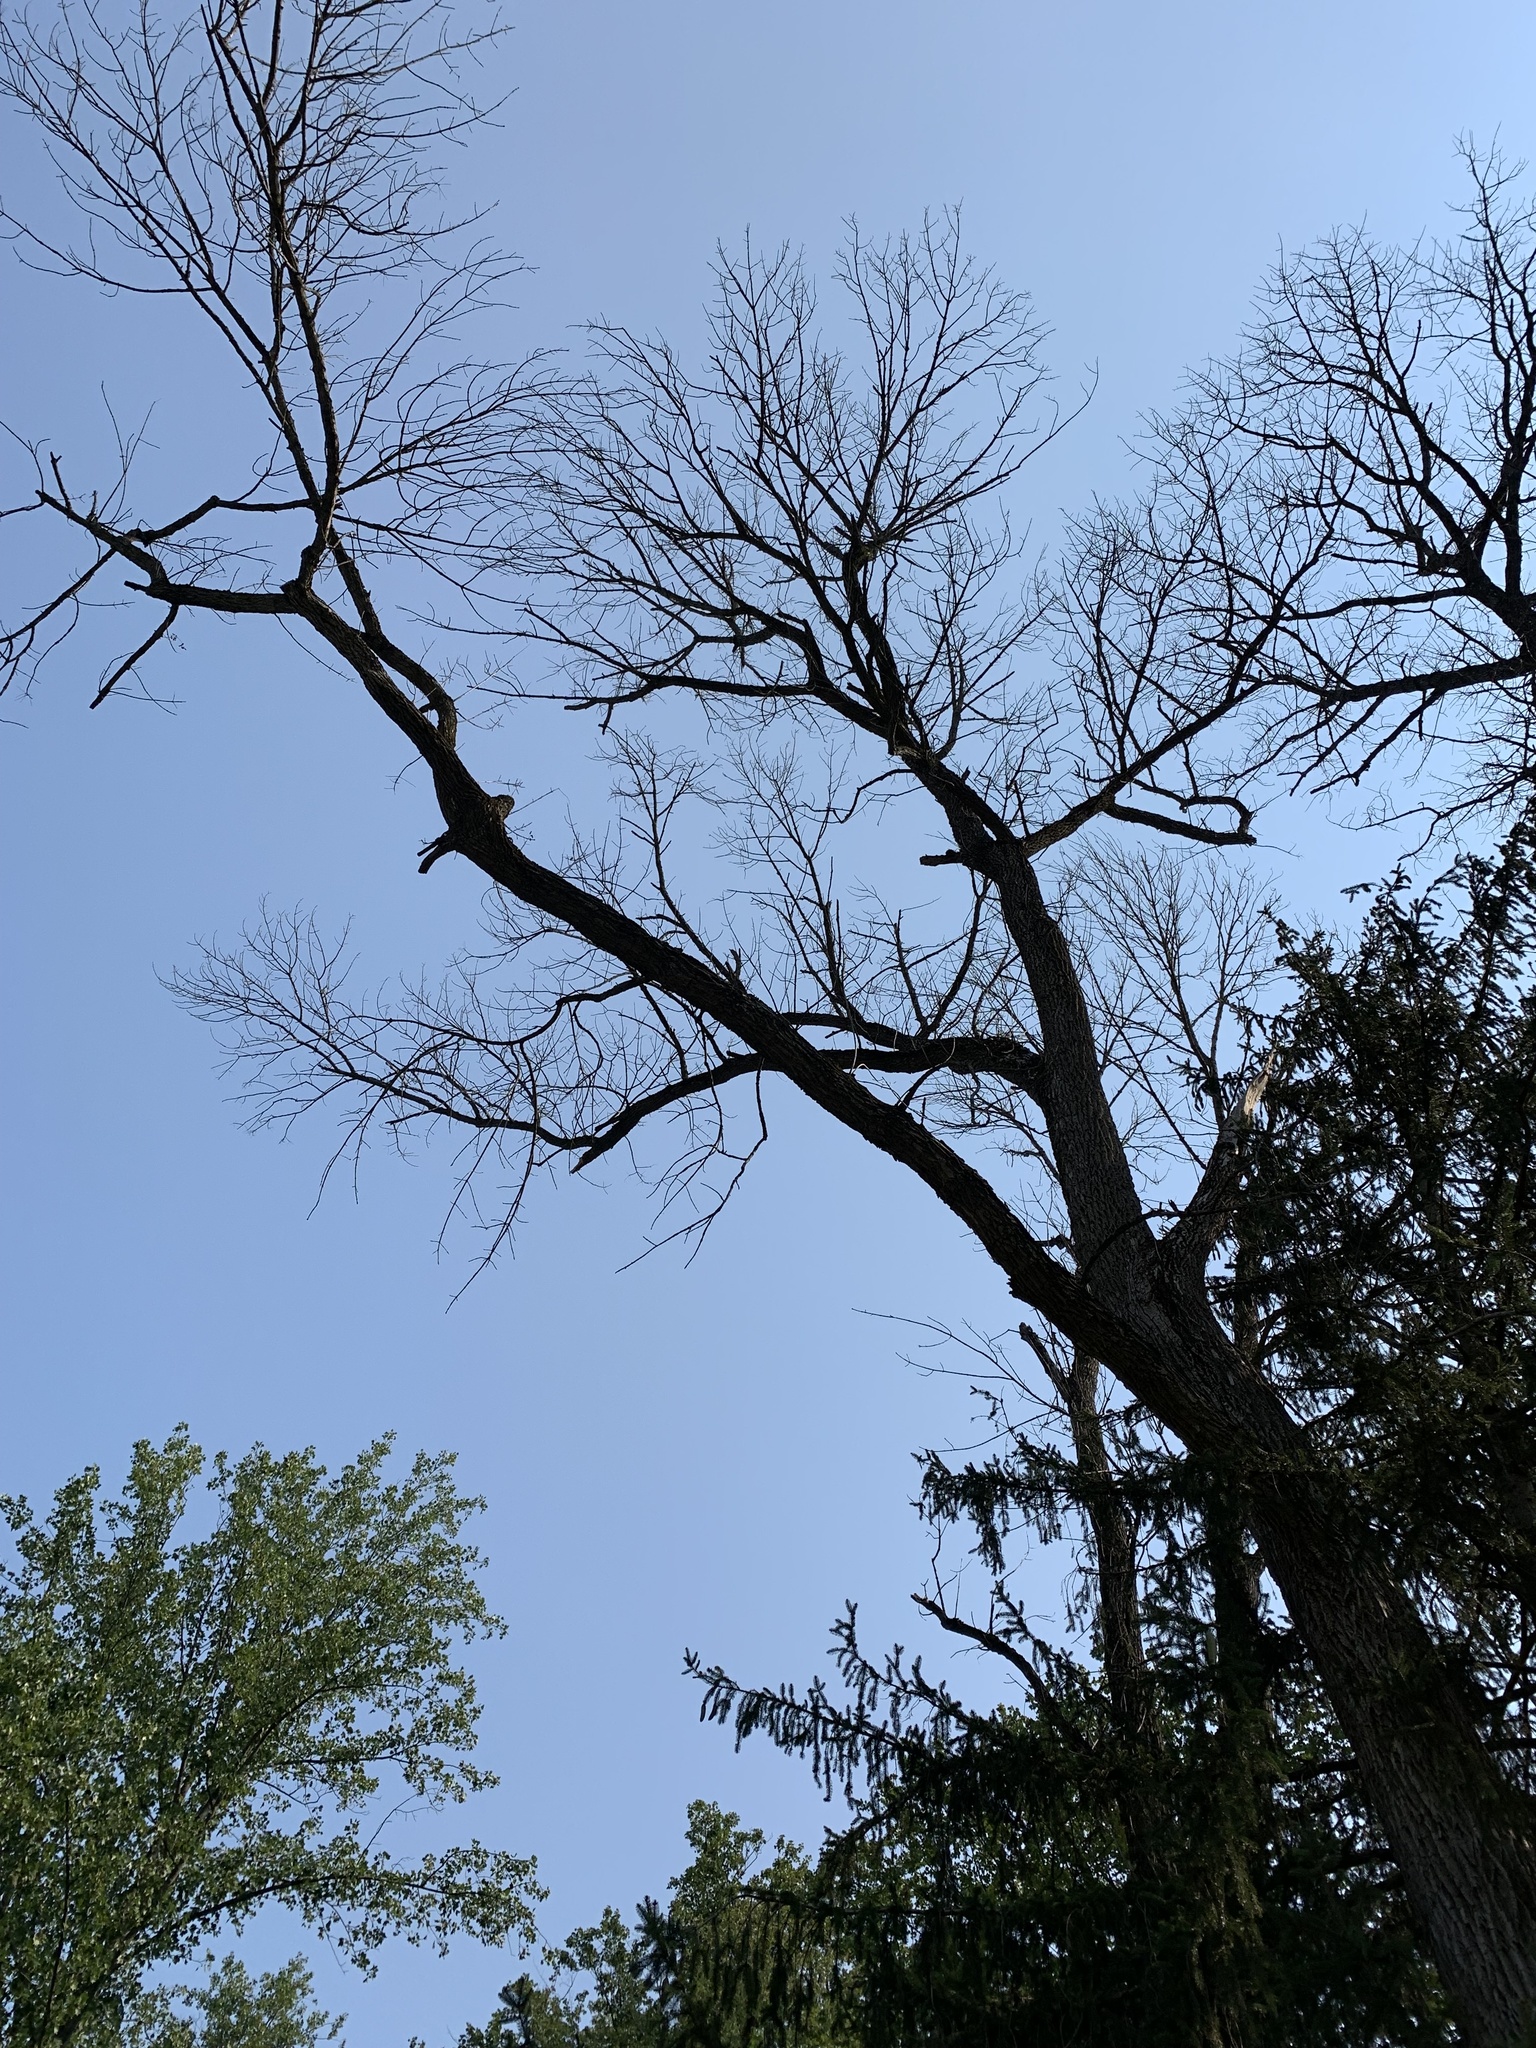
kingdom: Animalia
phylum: Arthropoda
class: Insecta
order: Coleoptera
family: Buprestidae
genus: Agrilus
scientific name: Agrilus planipennis
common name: Emerald ash borer
